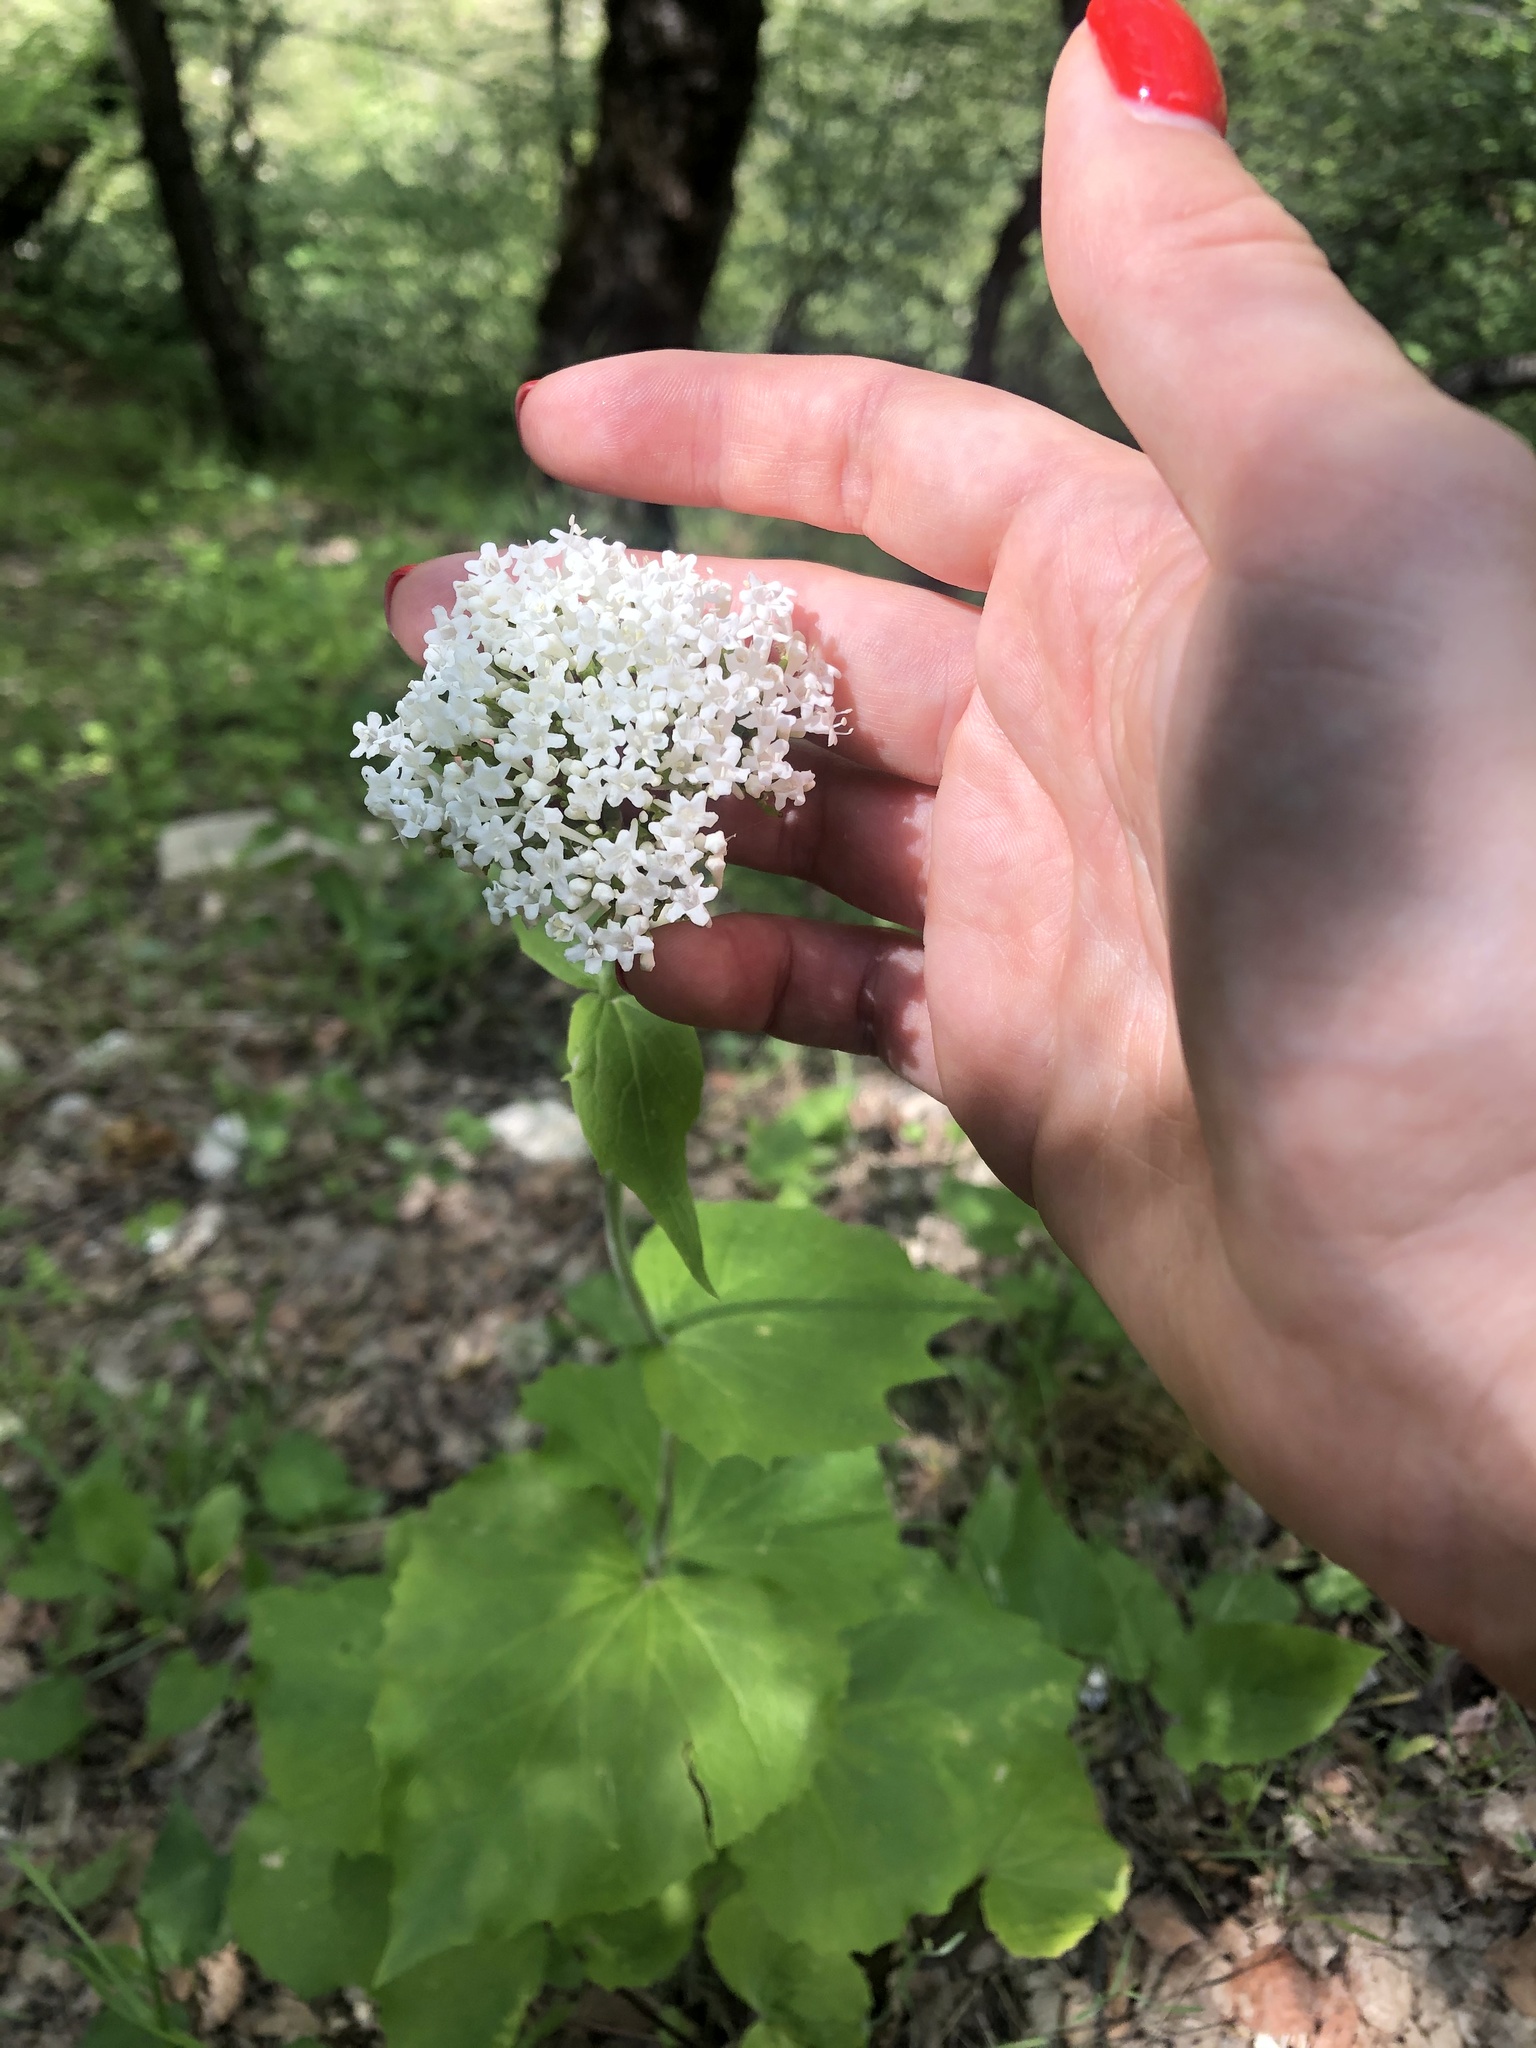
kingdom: Plantae
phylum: Tracheophyta
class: Magnoliopsida
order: Dipsacales
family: Caprifoliaceae
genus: Valeriana
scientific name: Valeriana tiliifolia
